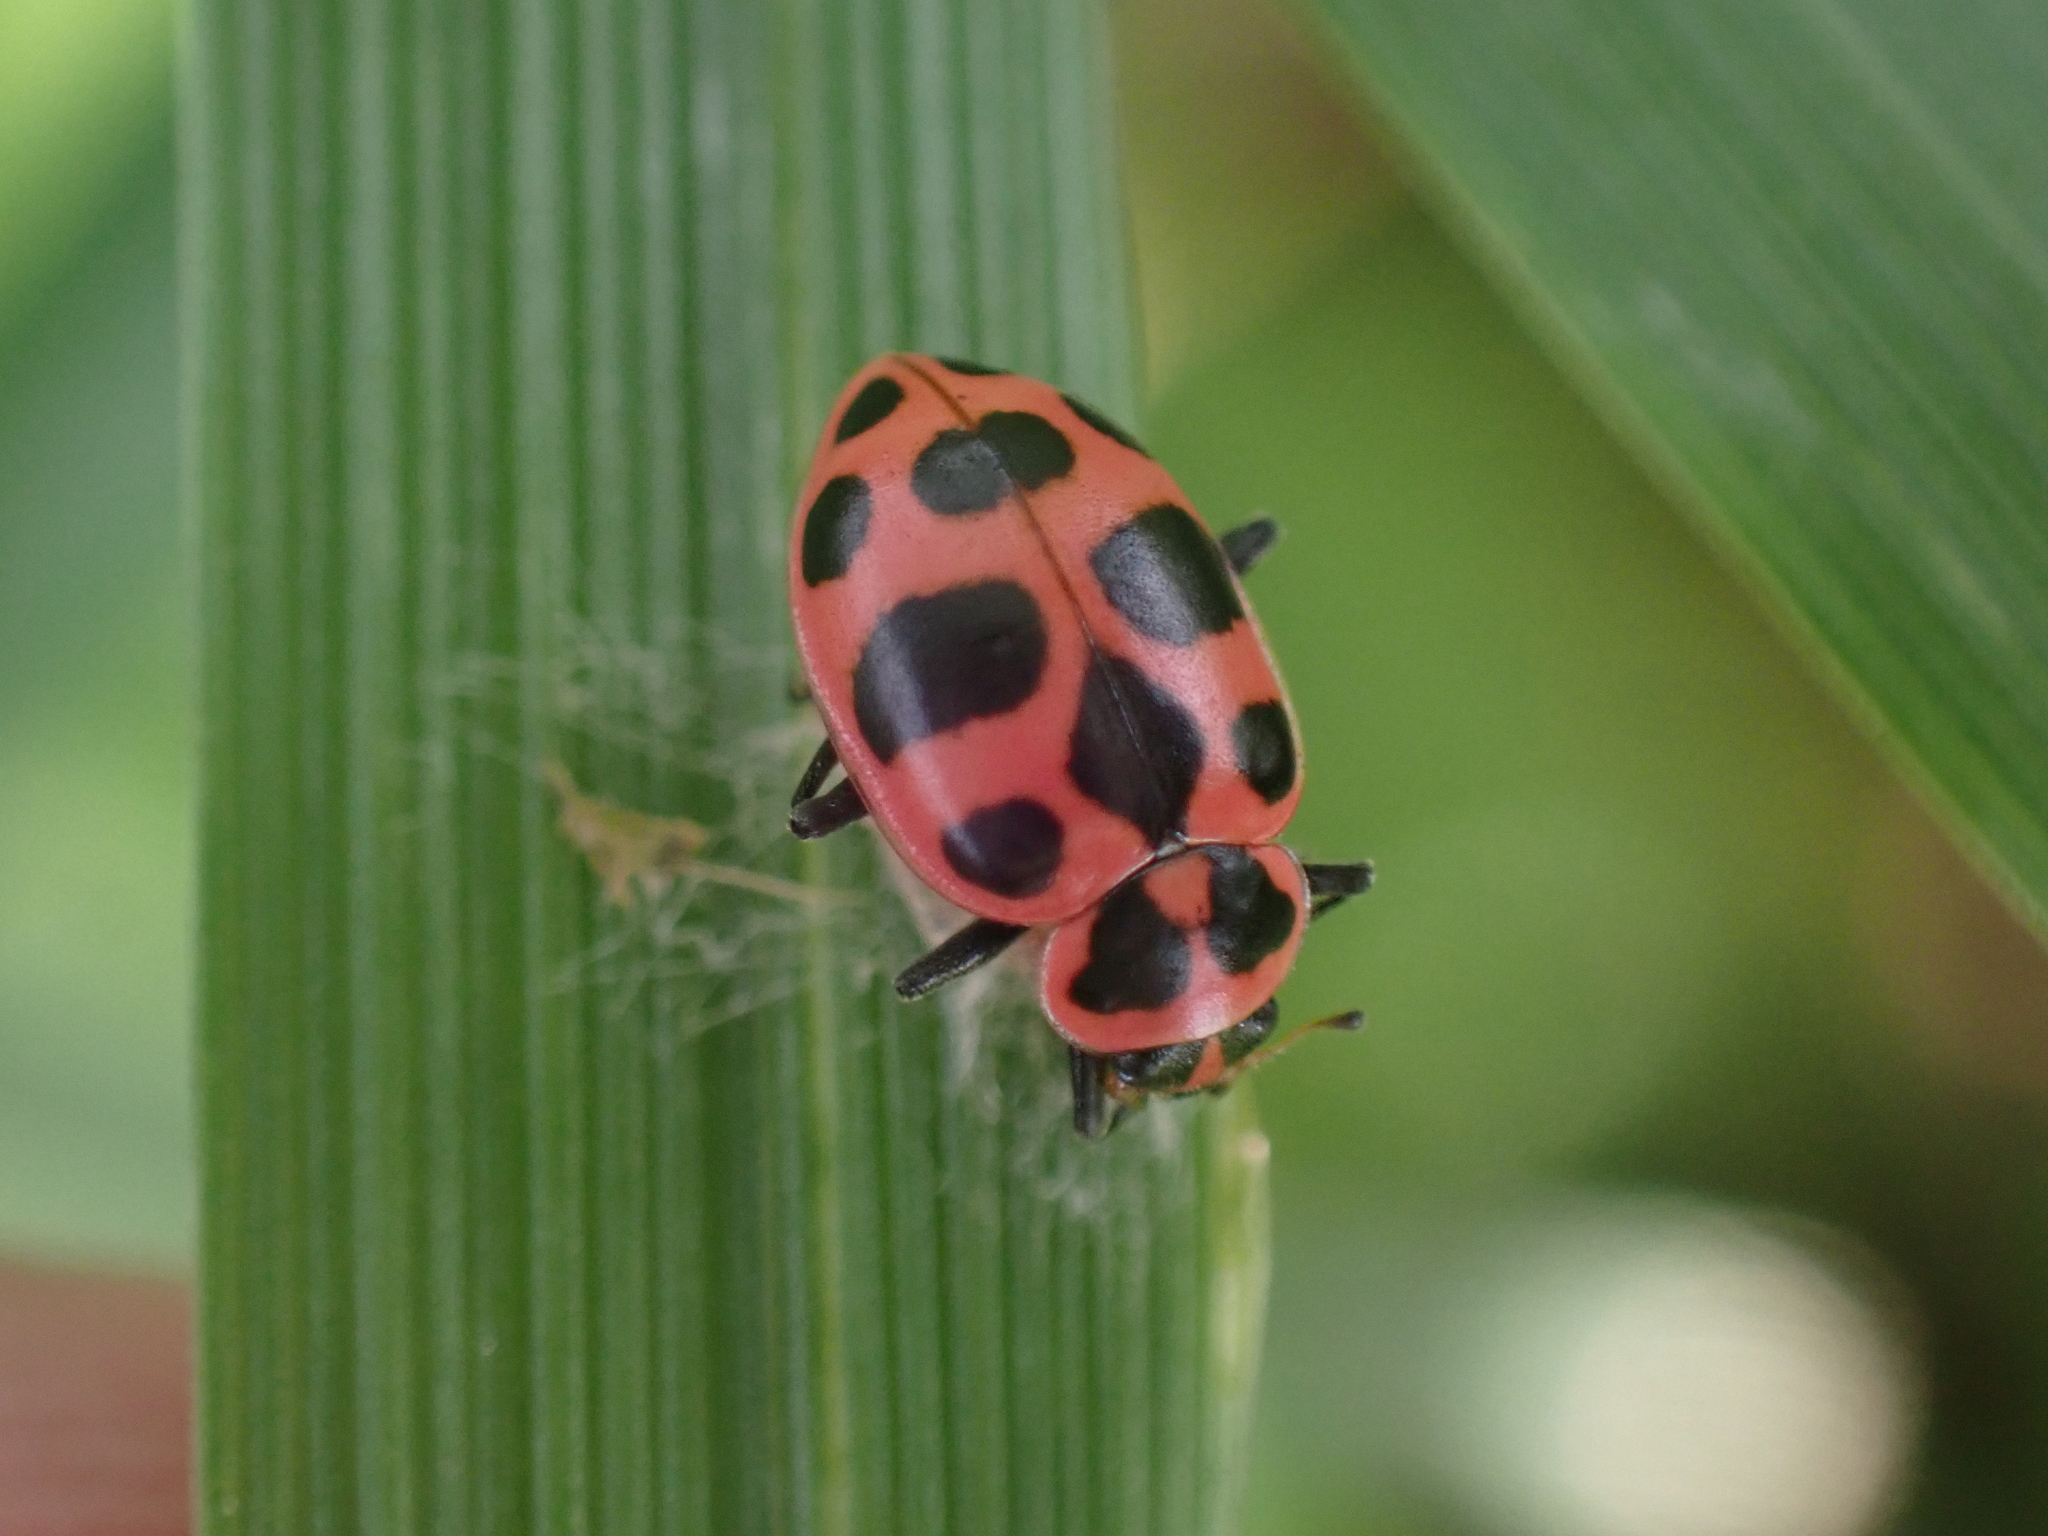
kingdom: Animalia
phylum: Arthropoda
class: Insecta
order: Coleoptera
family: Coccinellidae
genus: Coleomegilla
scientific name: Coleomegilla maculata
